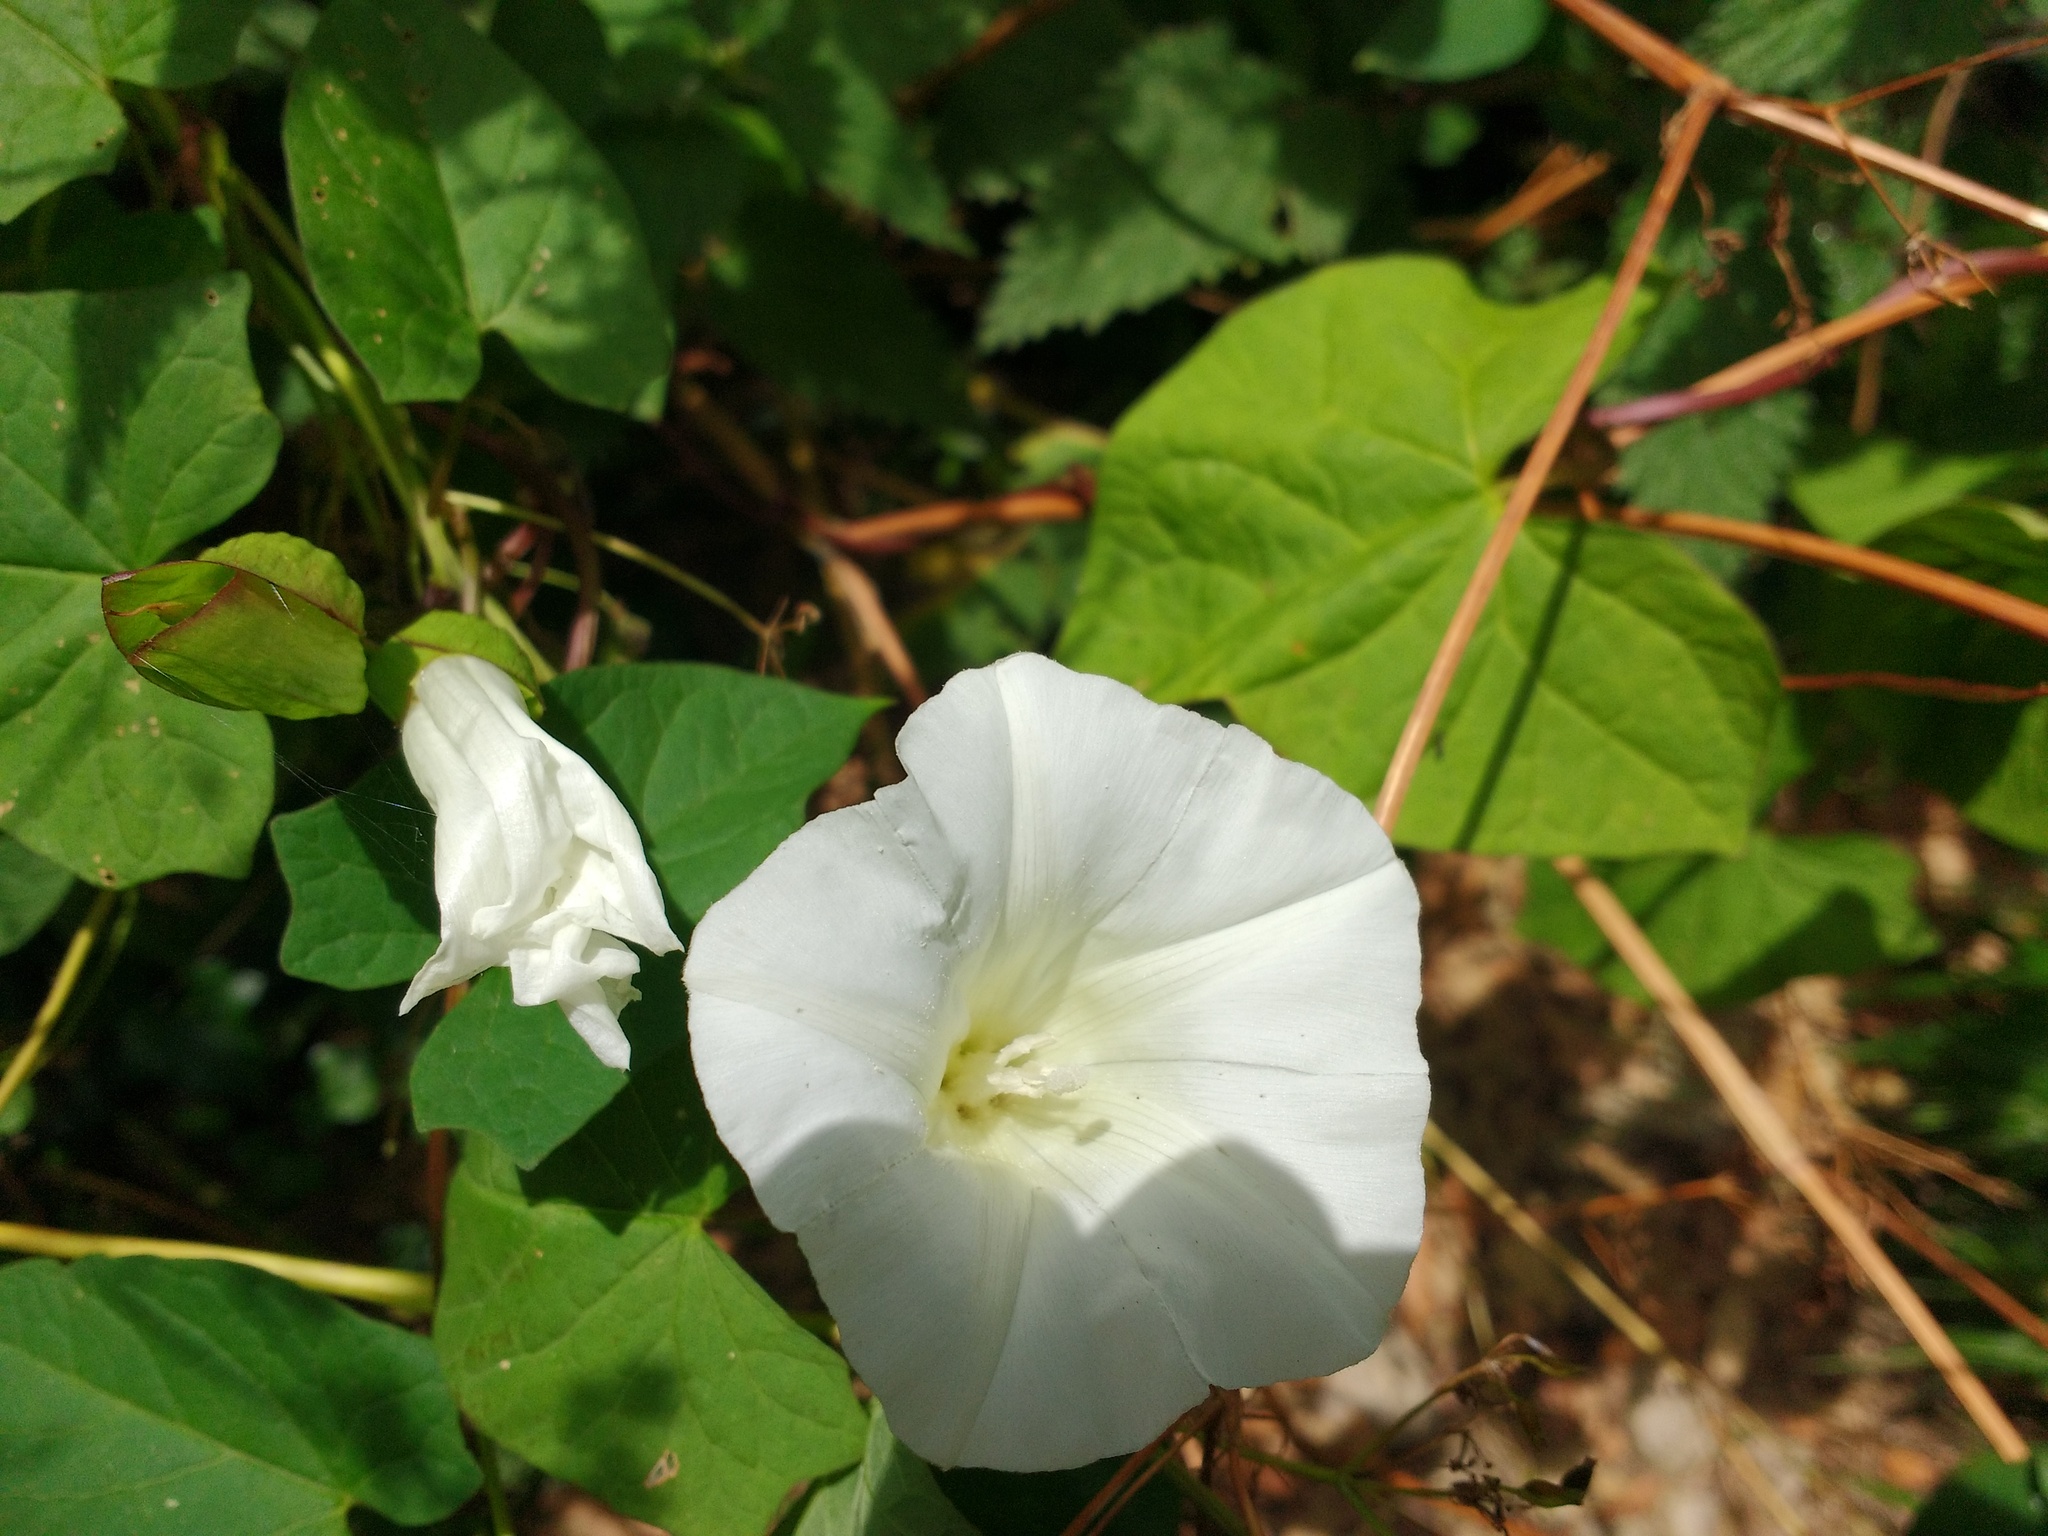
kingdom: Plantae
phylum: Tracheophyta
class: Magnoliopsida
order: Solanales
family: Convolvulaceae
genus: Calystegia
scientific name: Calystegia silvatica
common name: Large bindweed
